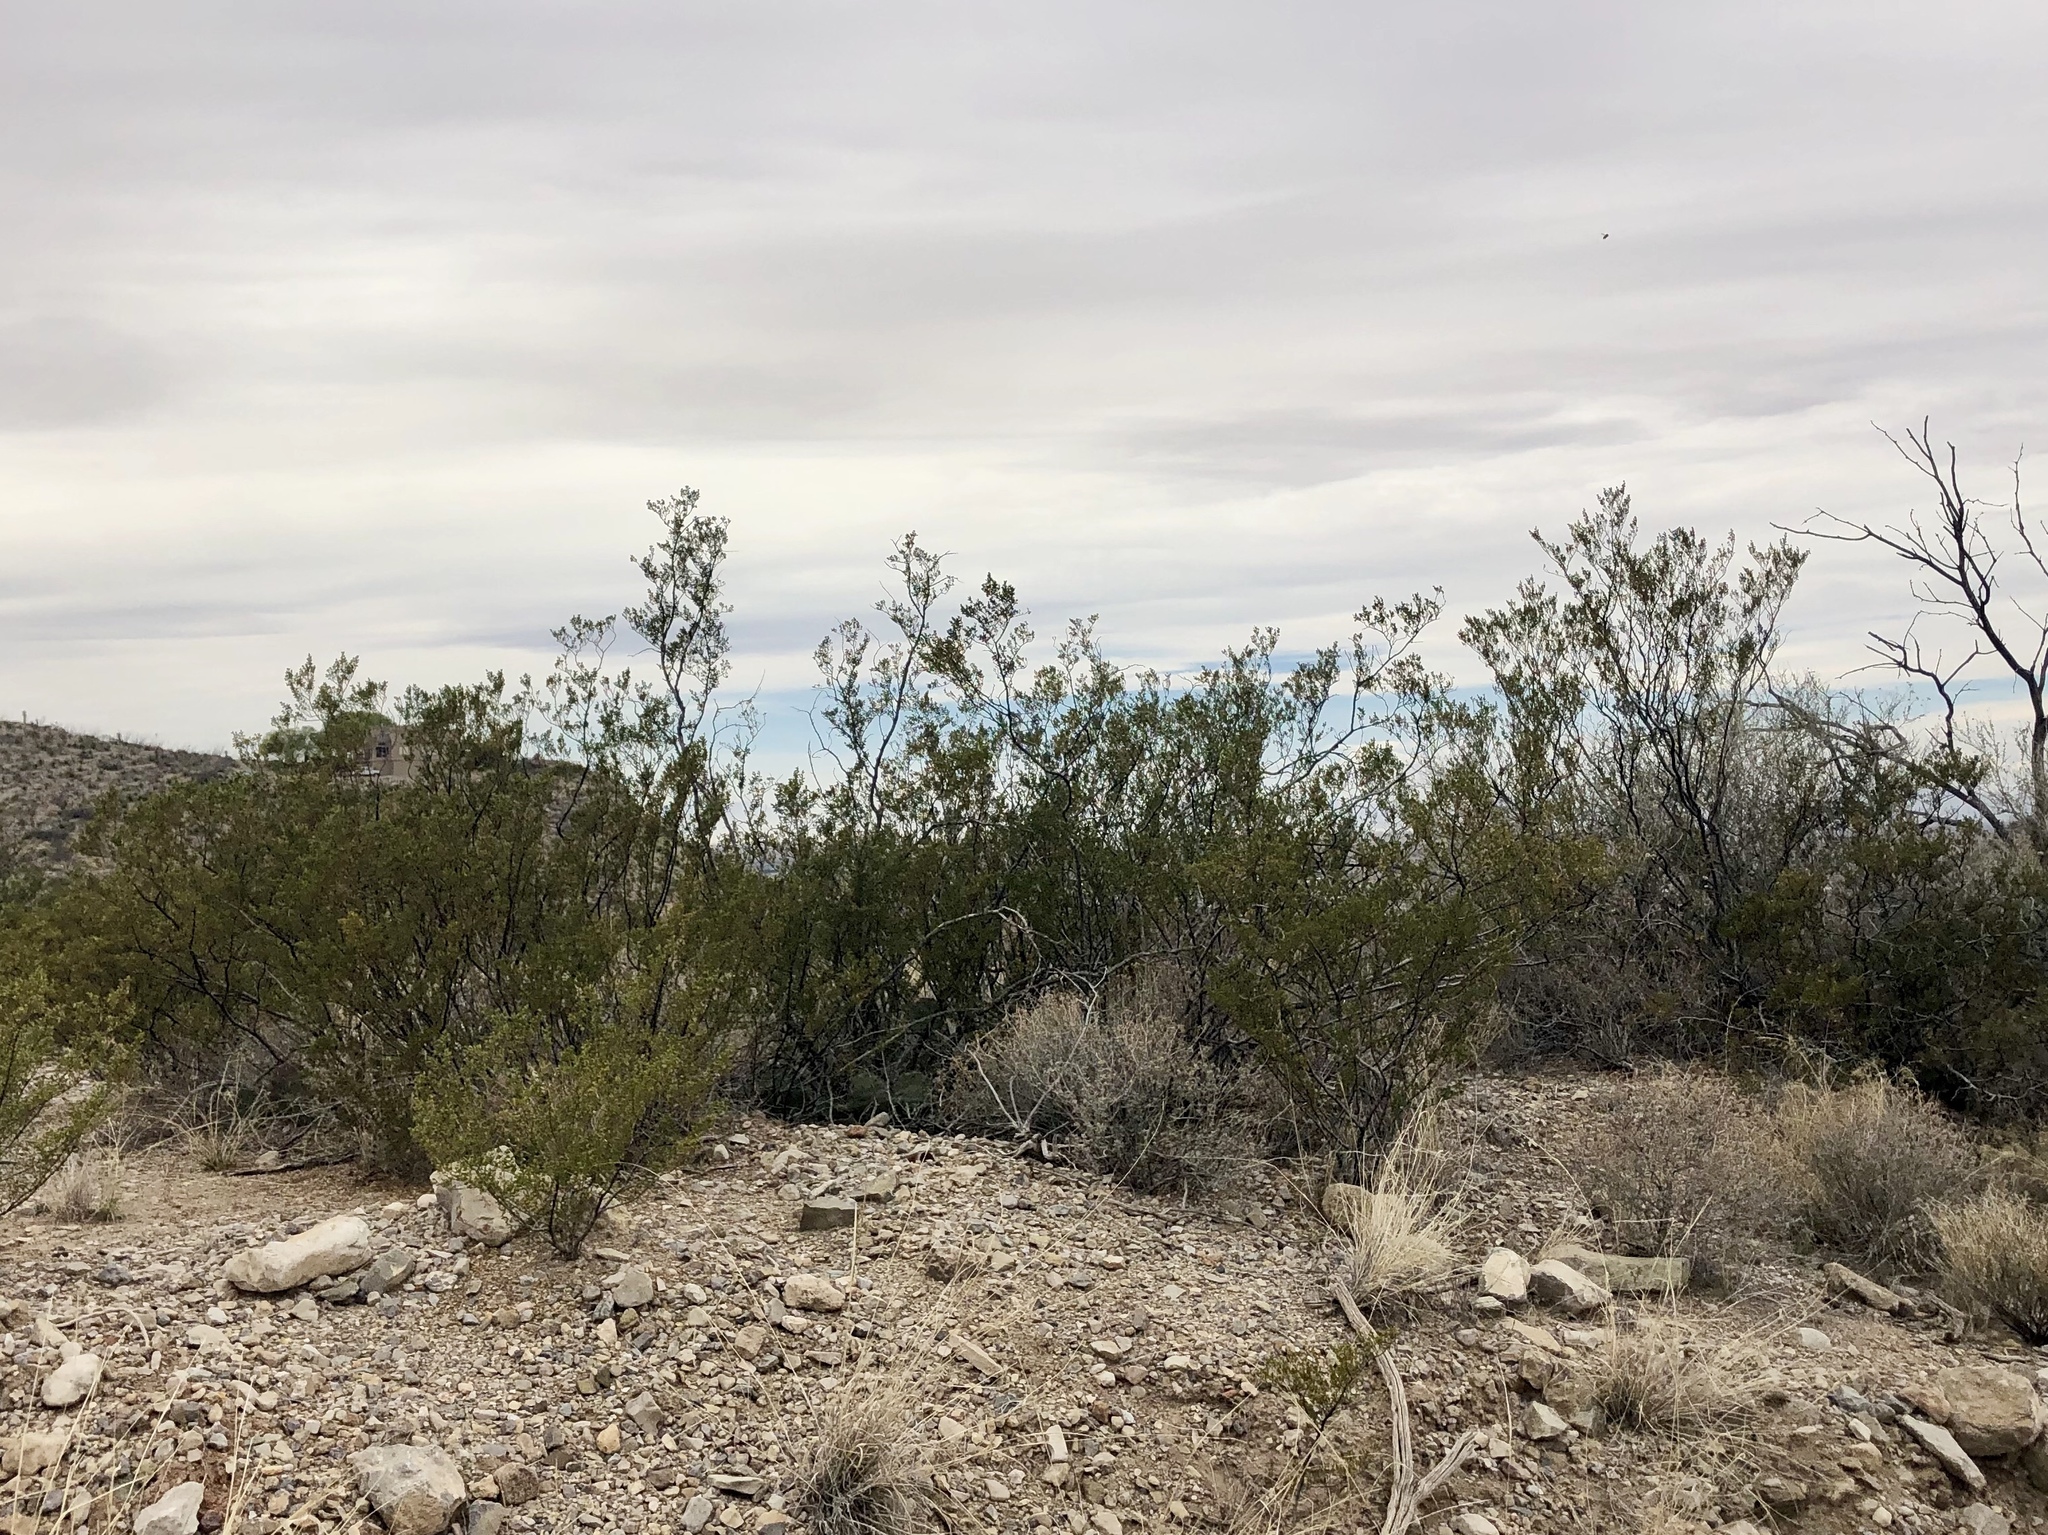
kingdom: Plantae
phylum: Tracheophyta
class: Magnoliopsida
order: Zygophyllales
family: Zygophyllaceae
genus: Larrea
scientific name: Larrea tridentata
